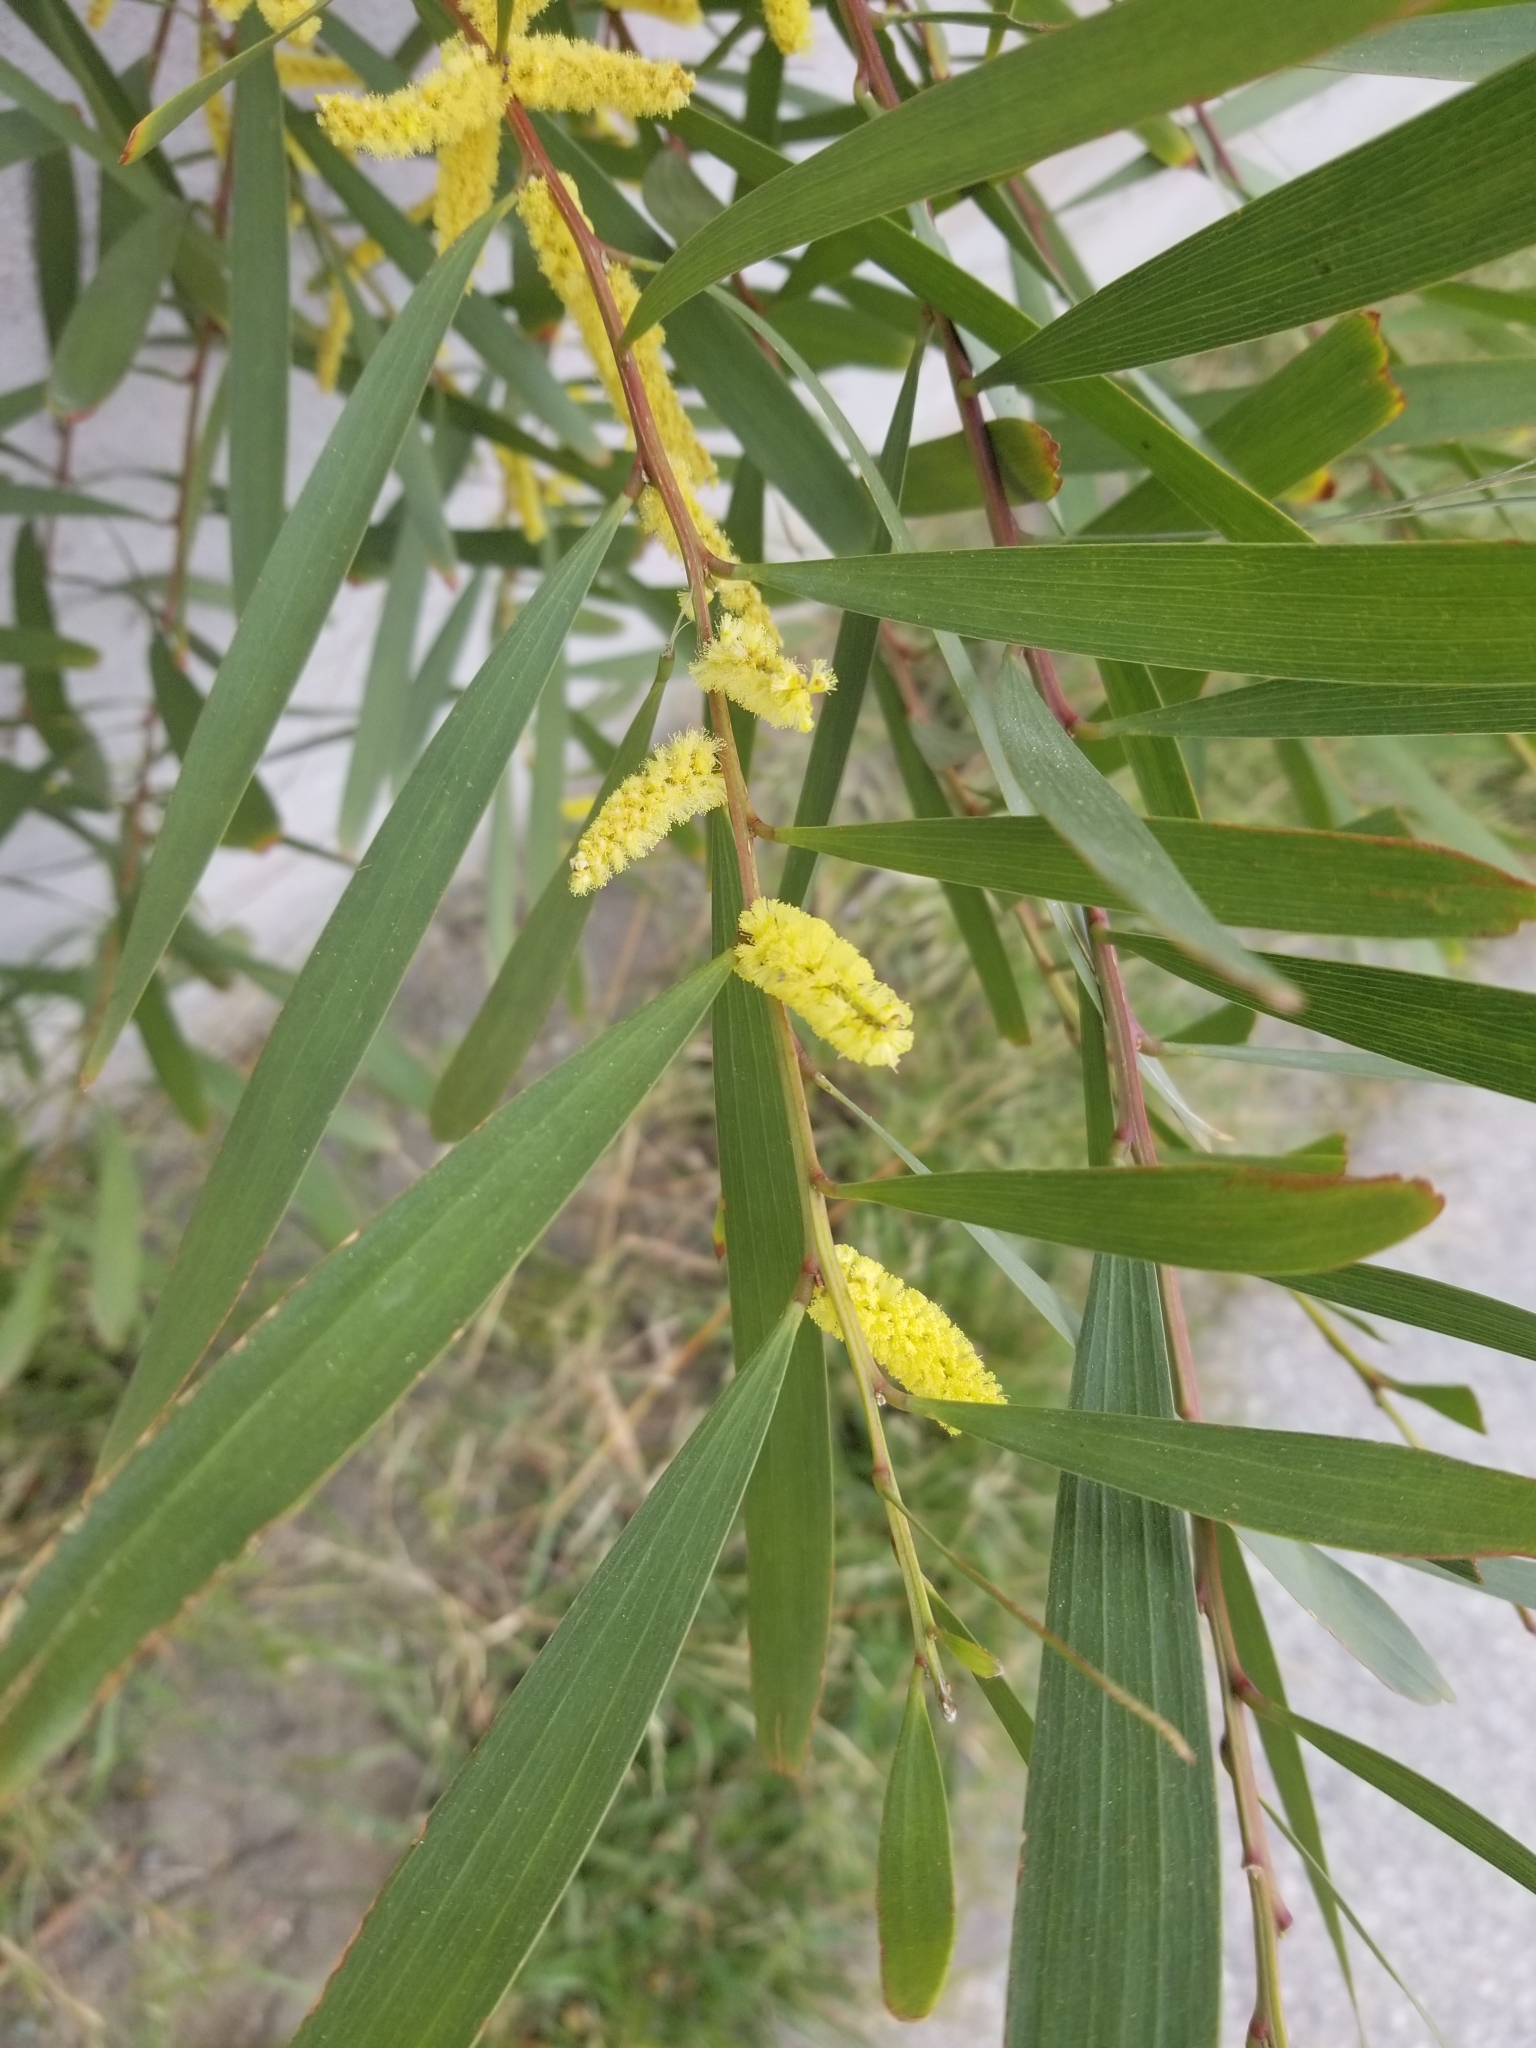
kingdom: Plantae
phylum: Tracheophyta
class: Magnoliopsida
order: Fabales
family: Fabaceae
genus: Acacia
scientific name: Acacia longifolia
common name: Sydney golden wattle
